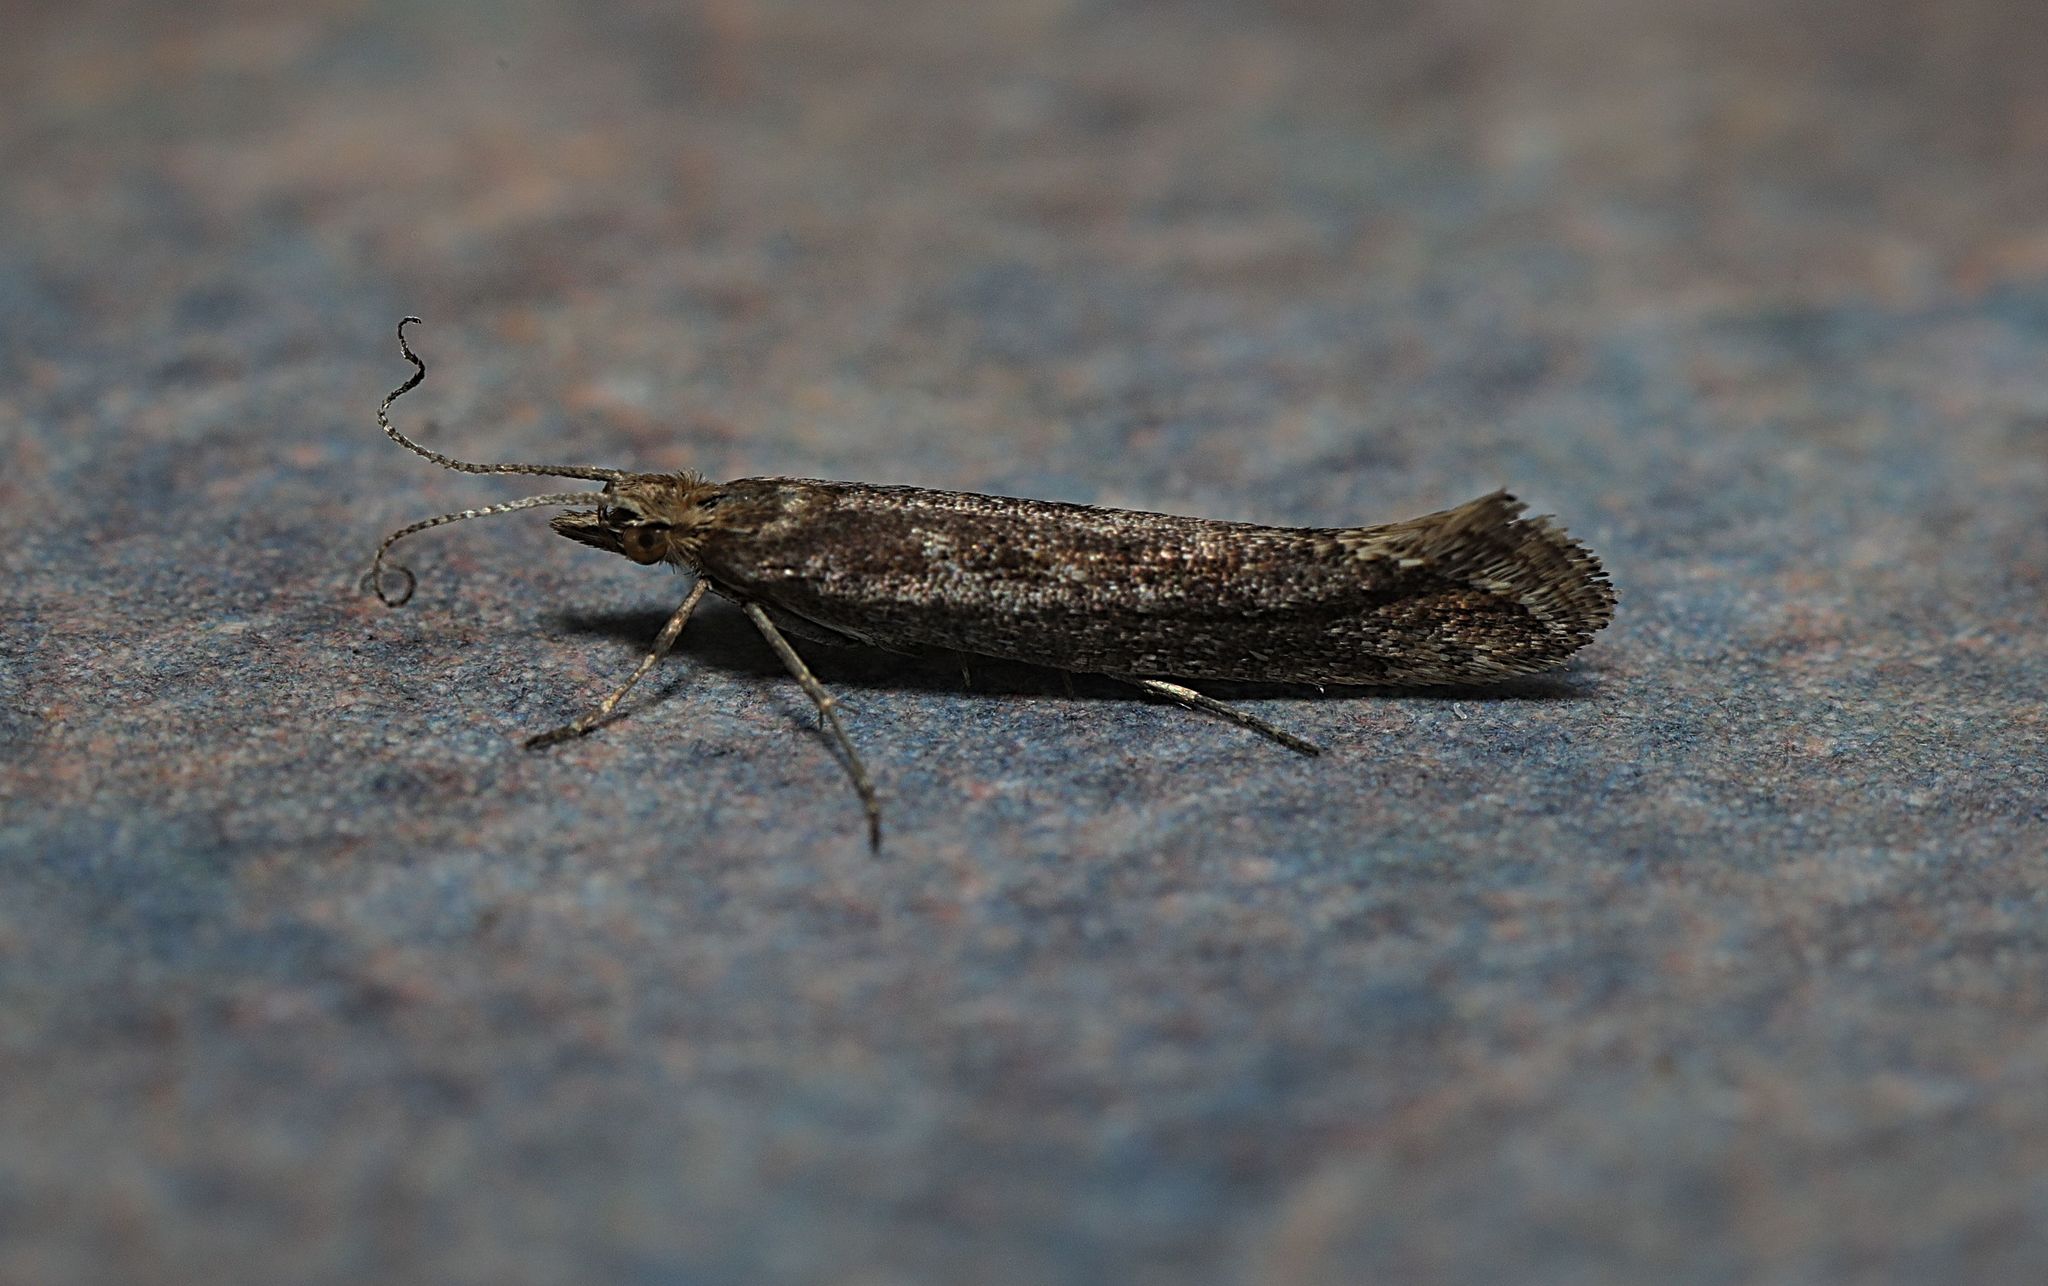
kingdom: Animalia
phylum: Arthropoda
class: Insecta
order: Lepidoptera
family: Plutellidae
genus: Plutella
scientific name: Plutella xylostella
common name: Diamond-back moth
